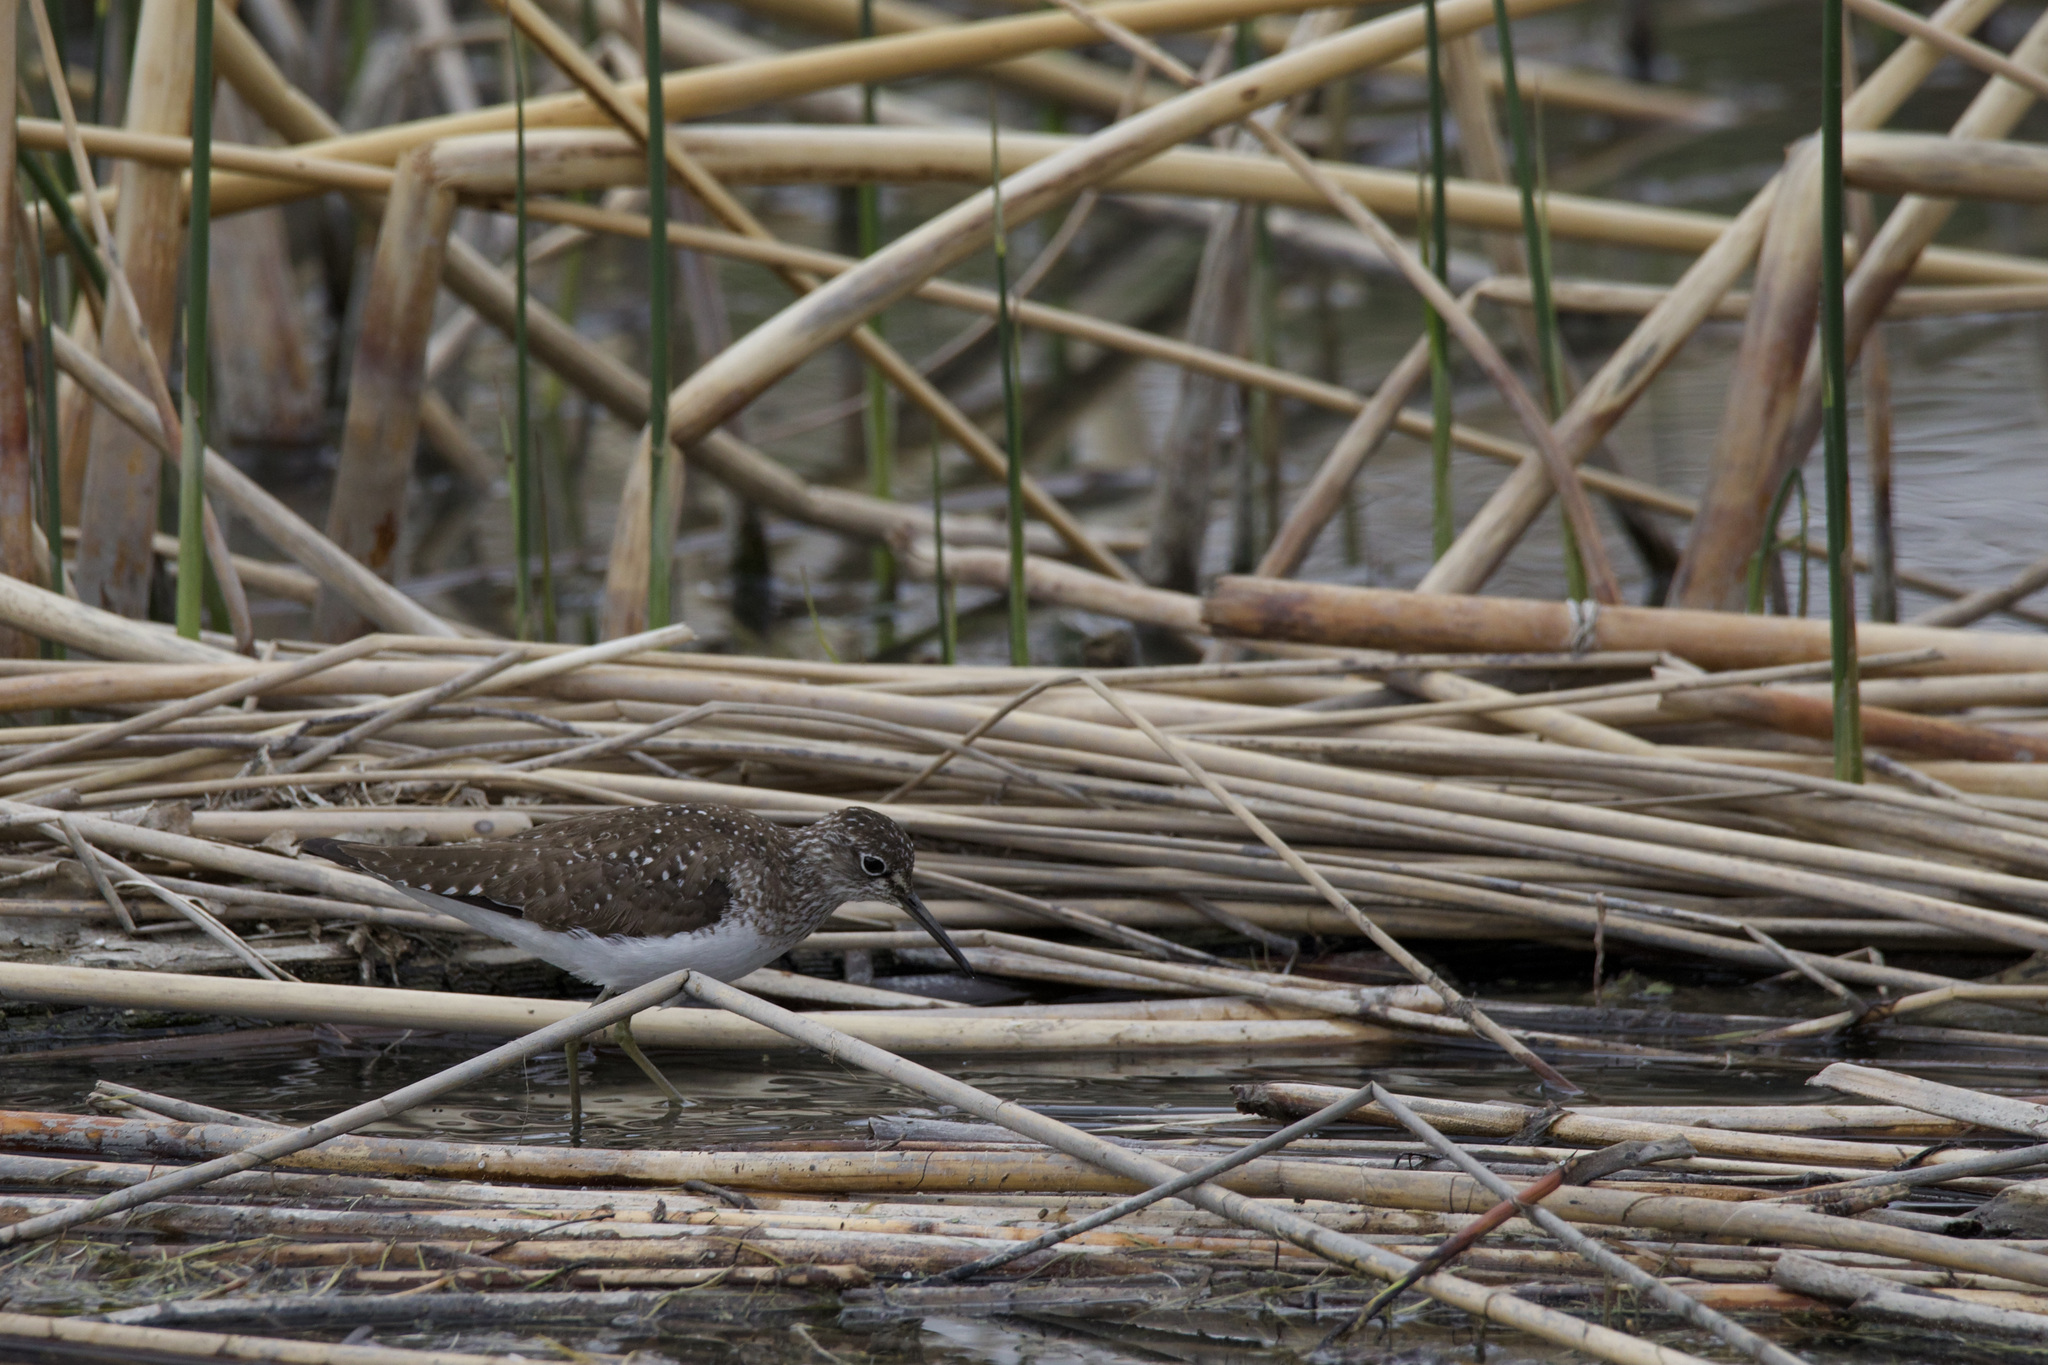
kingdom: Animalia
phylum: Chordata
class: Aves
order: Charadriiformes
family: Scolopacidae
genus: Tringa
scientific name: Tringa solitaria
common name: Solitary sandpiper
